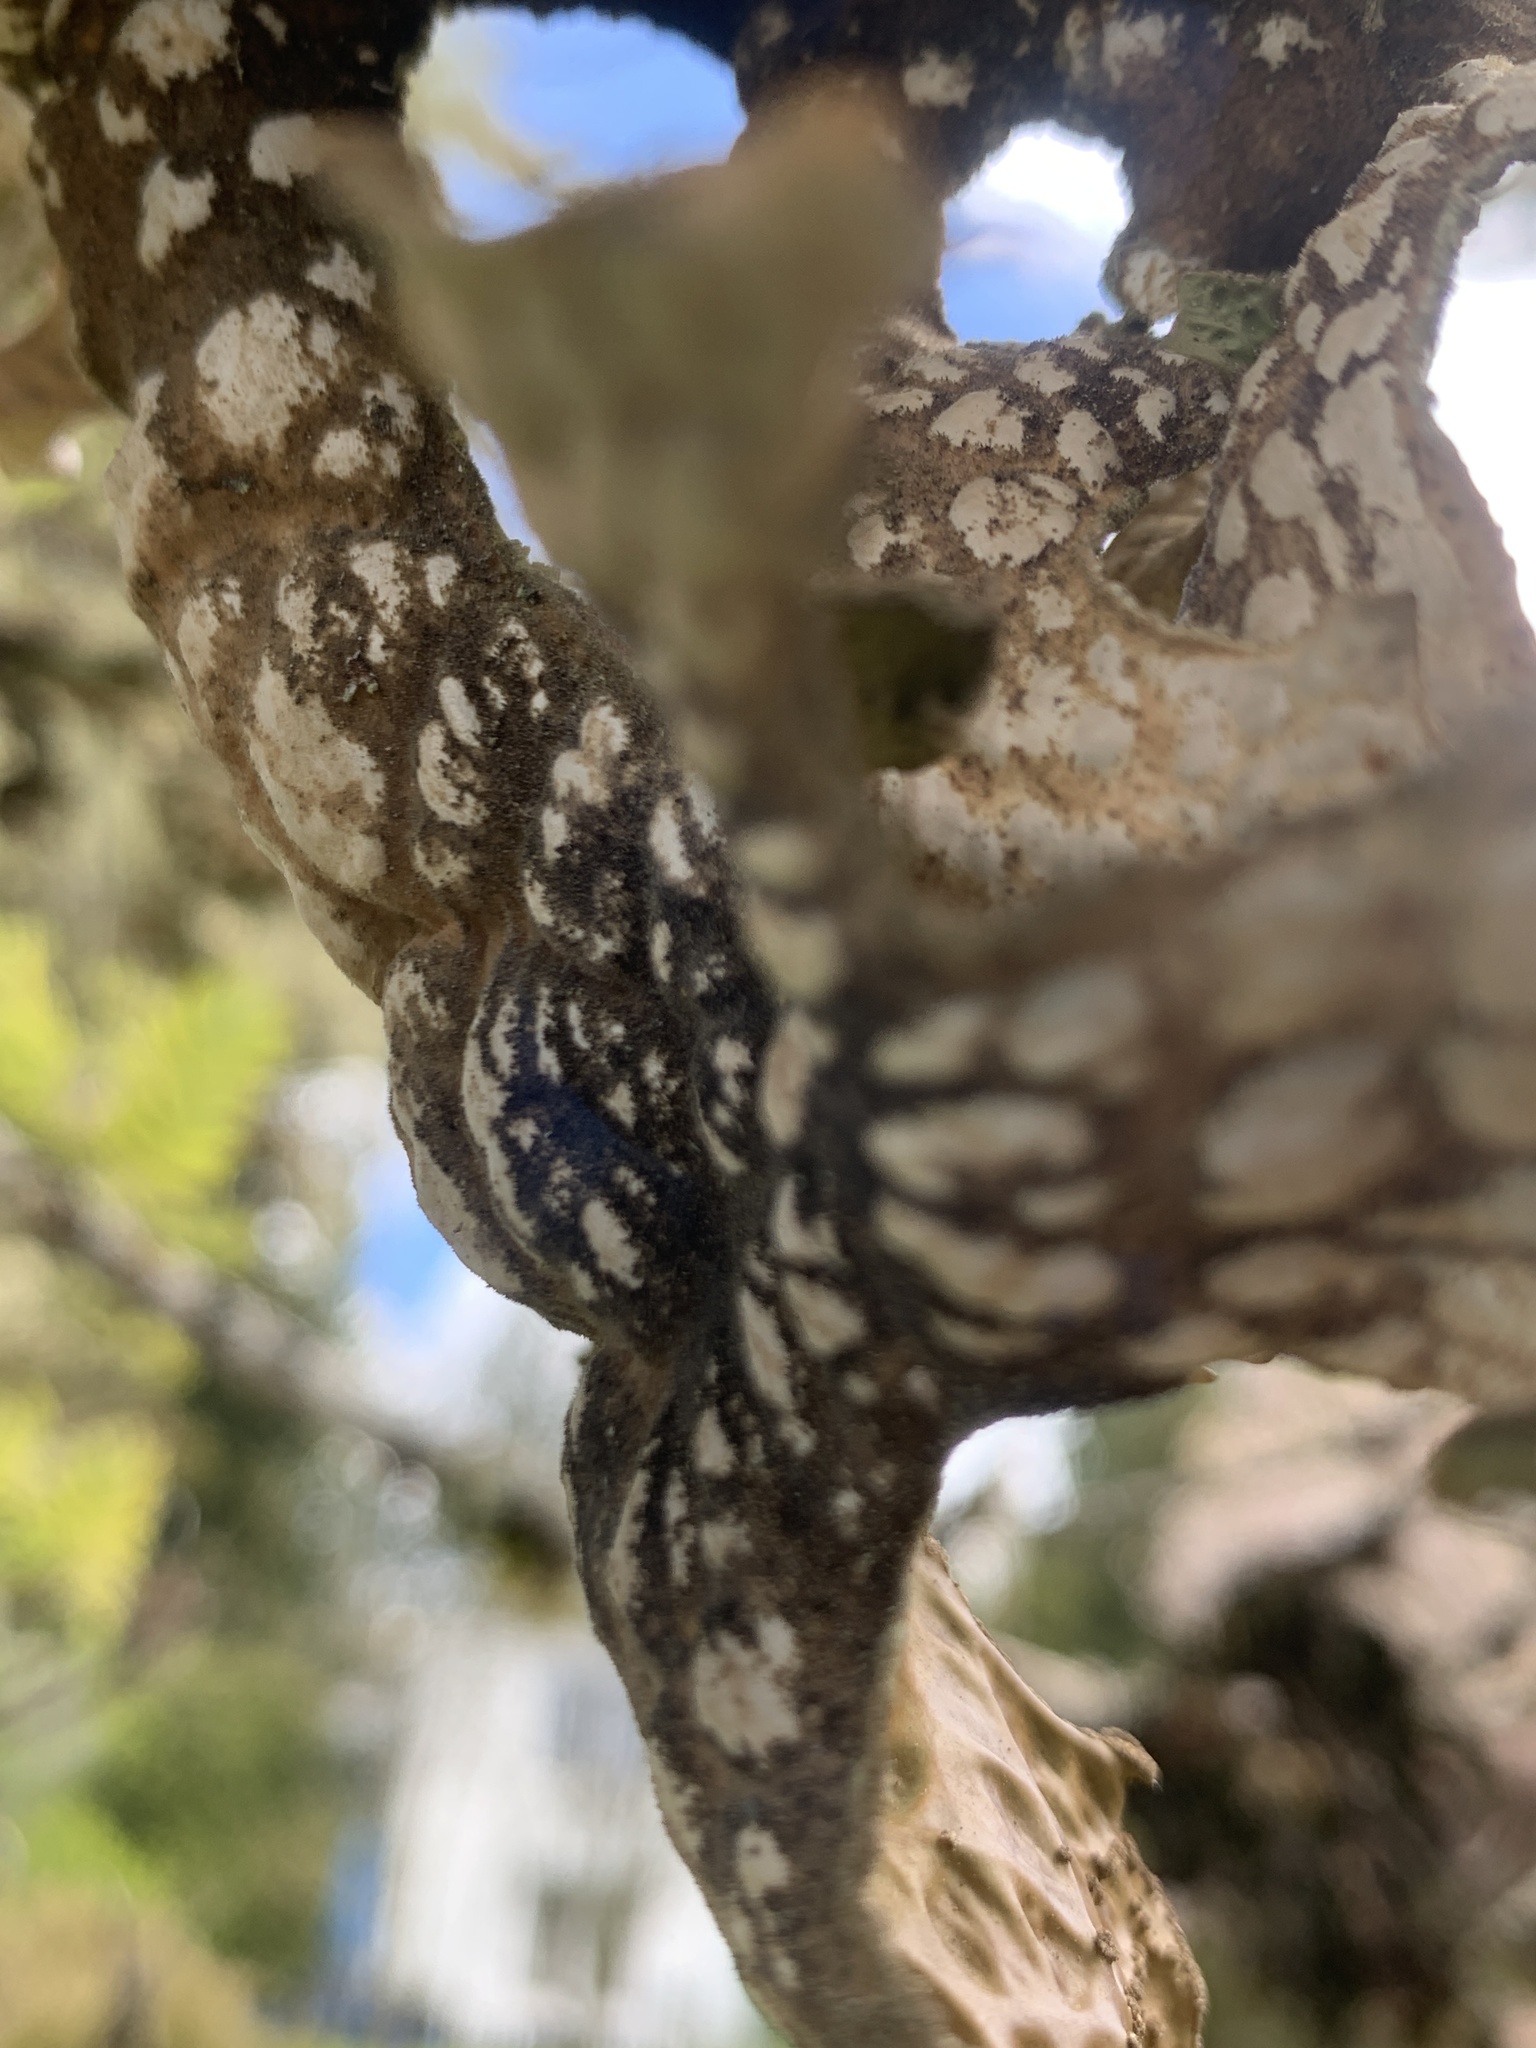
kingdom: Fungi
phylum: Ascomycota
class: Lecanoromycetes
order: Peltigerales
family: Lobariaceae
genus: Lobaria
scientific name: Lobaria pulmonaria
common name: Lungwort
